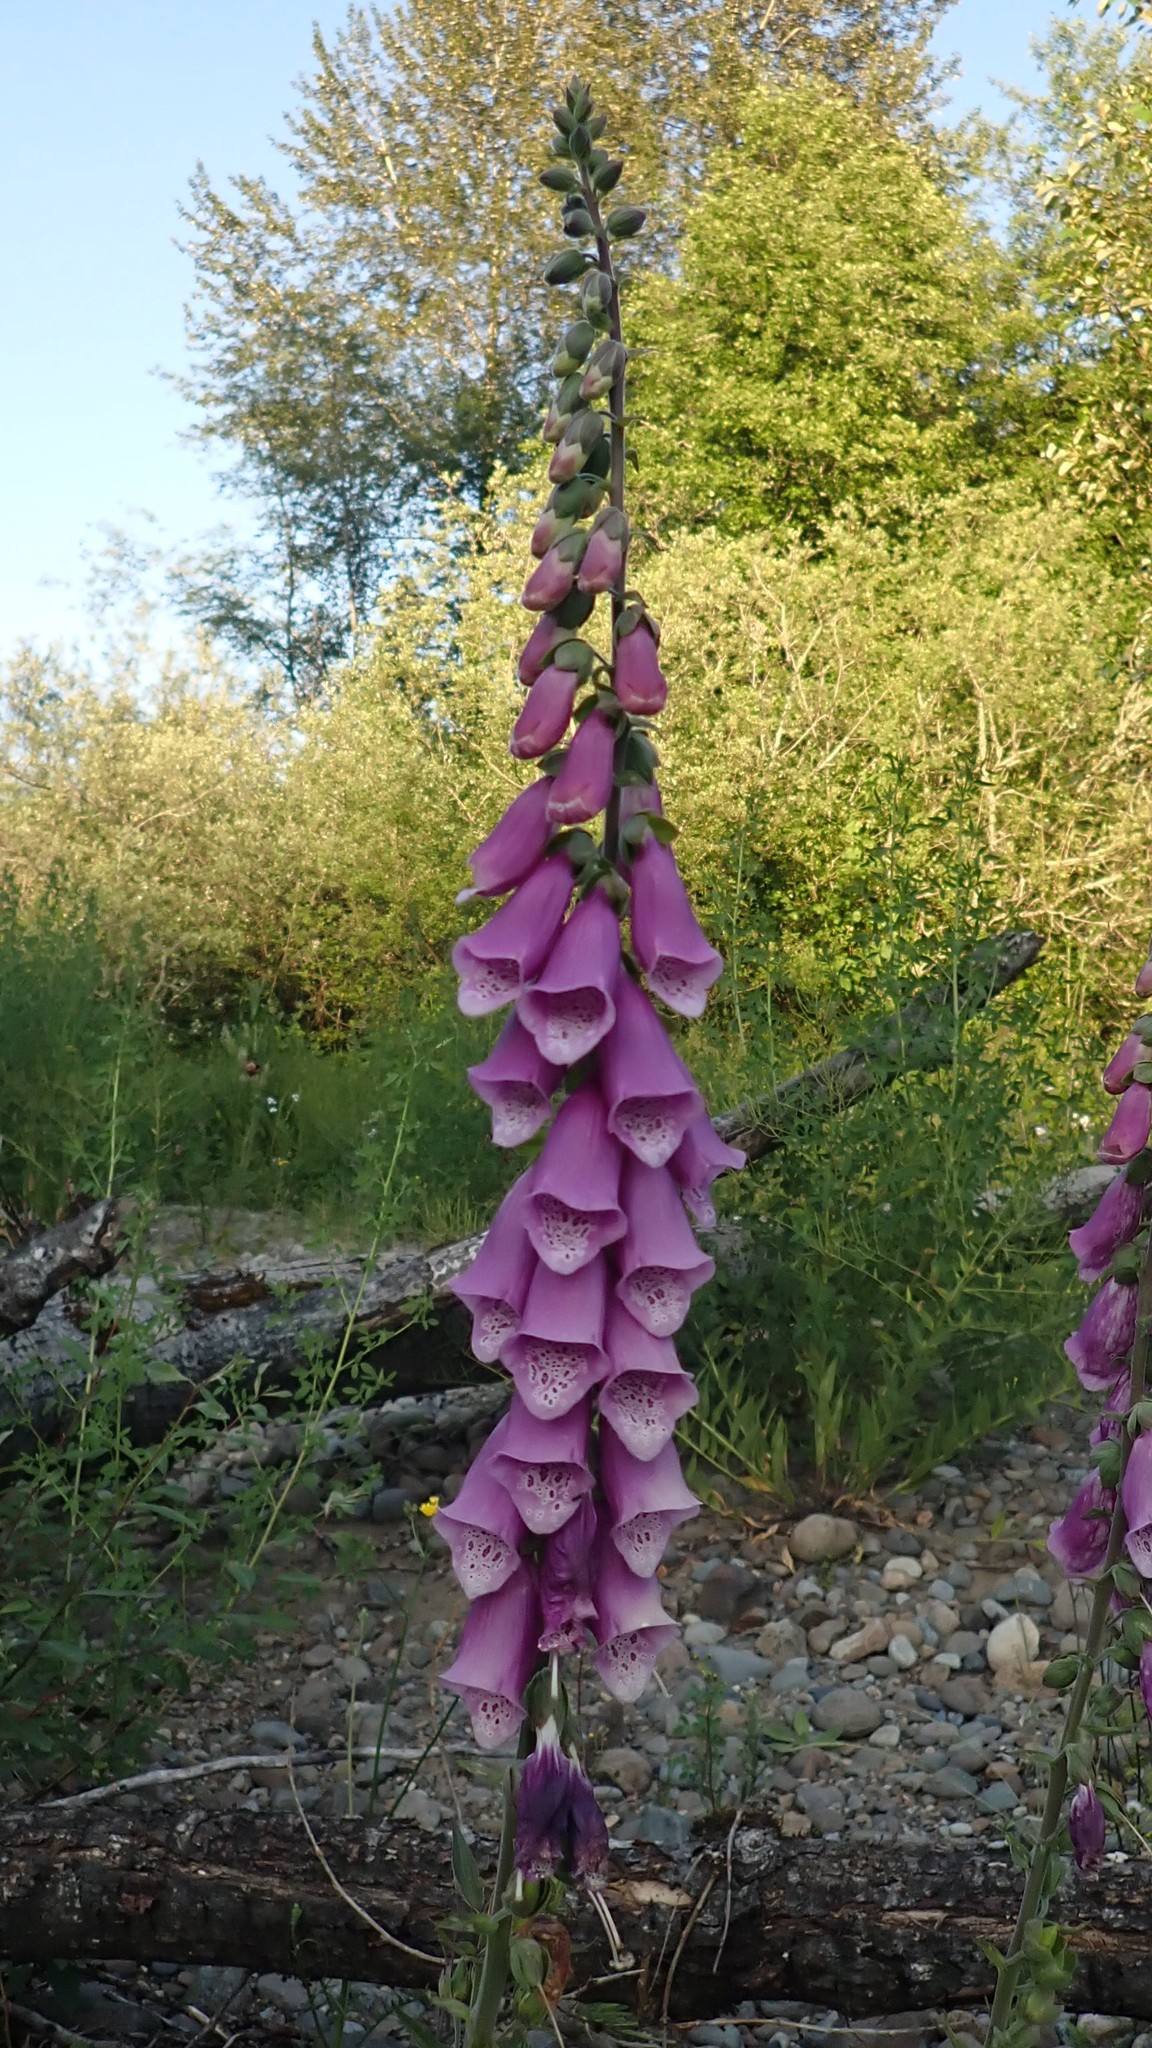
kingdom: Plantae
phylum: Tracheophyta
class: Magnoliopsida
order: Lamiales
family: Plantaginaceae
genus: Digitalis
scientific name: Digitalis purpurea
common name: Foxglove
